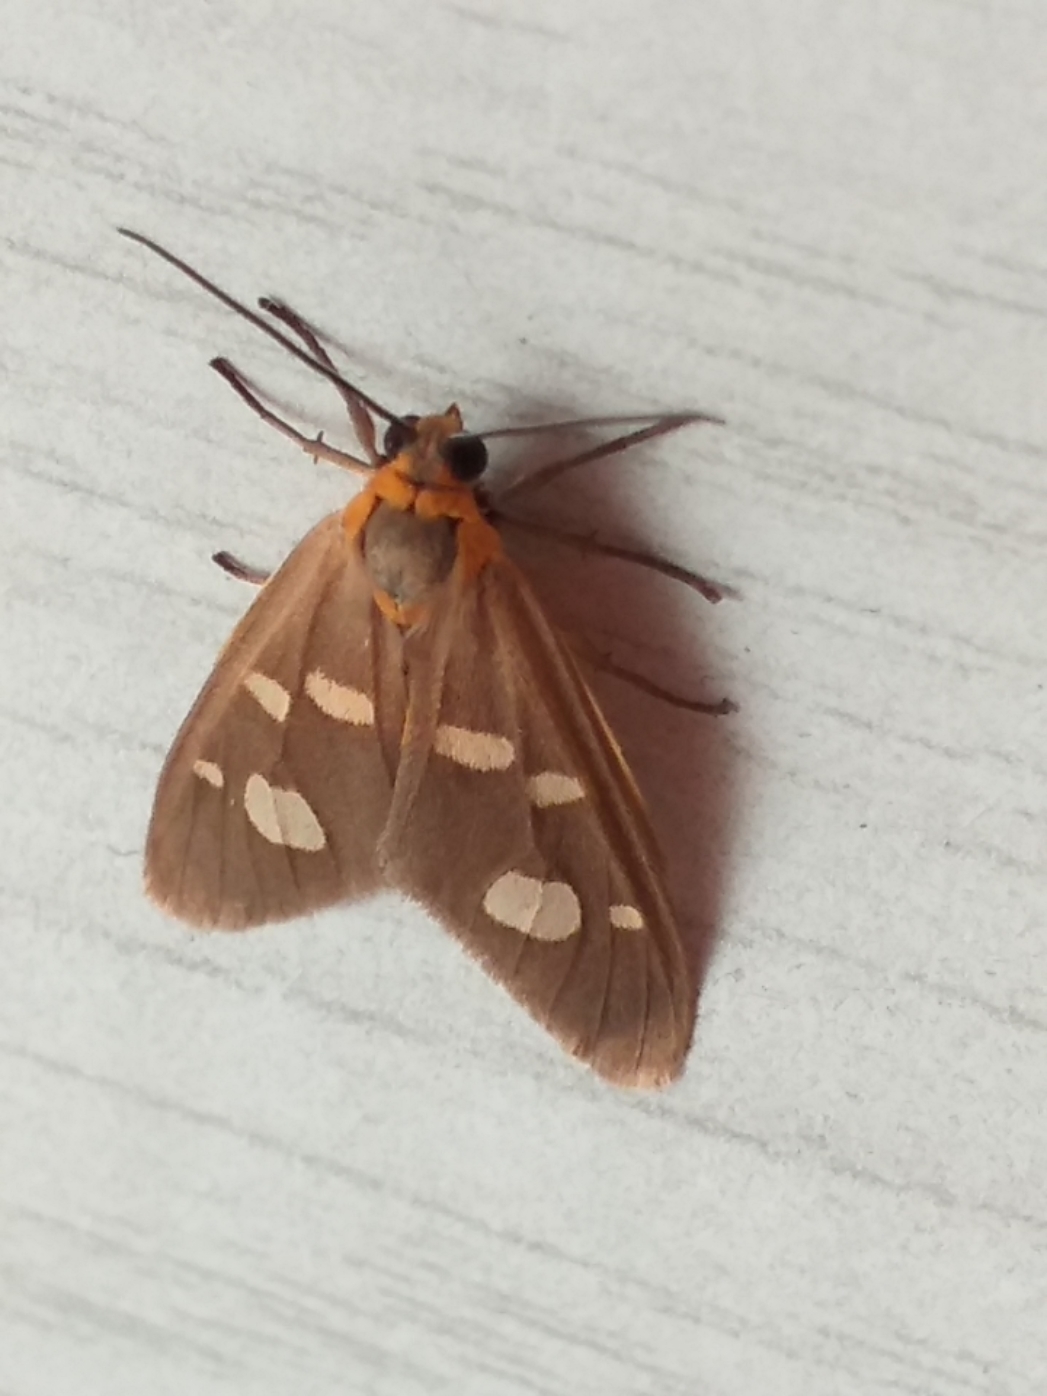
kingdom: Animalia
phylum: Arthropoda
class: Insecta
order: Lepidoptera
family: Erebidae
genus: Dysauxes
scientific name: Dysauxes punctata
